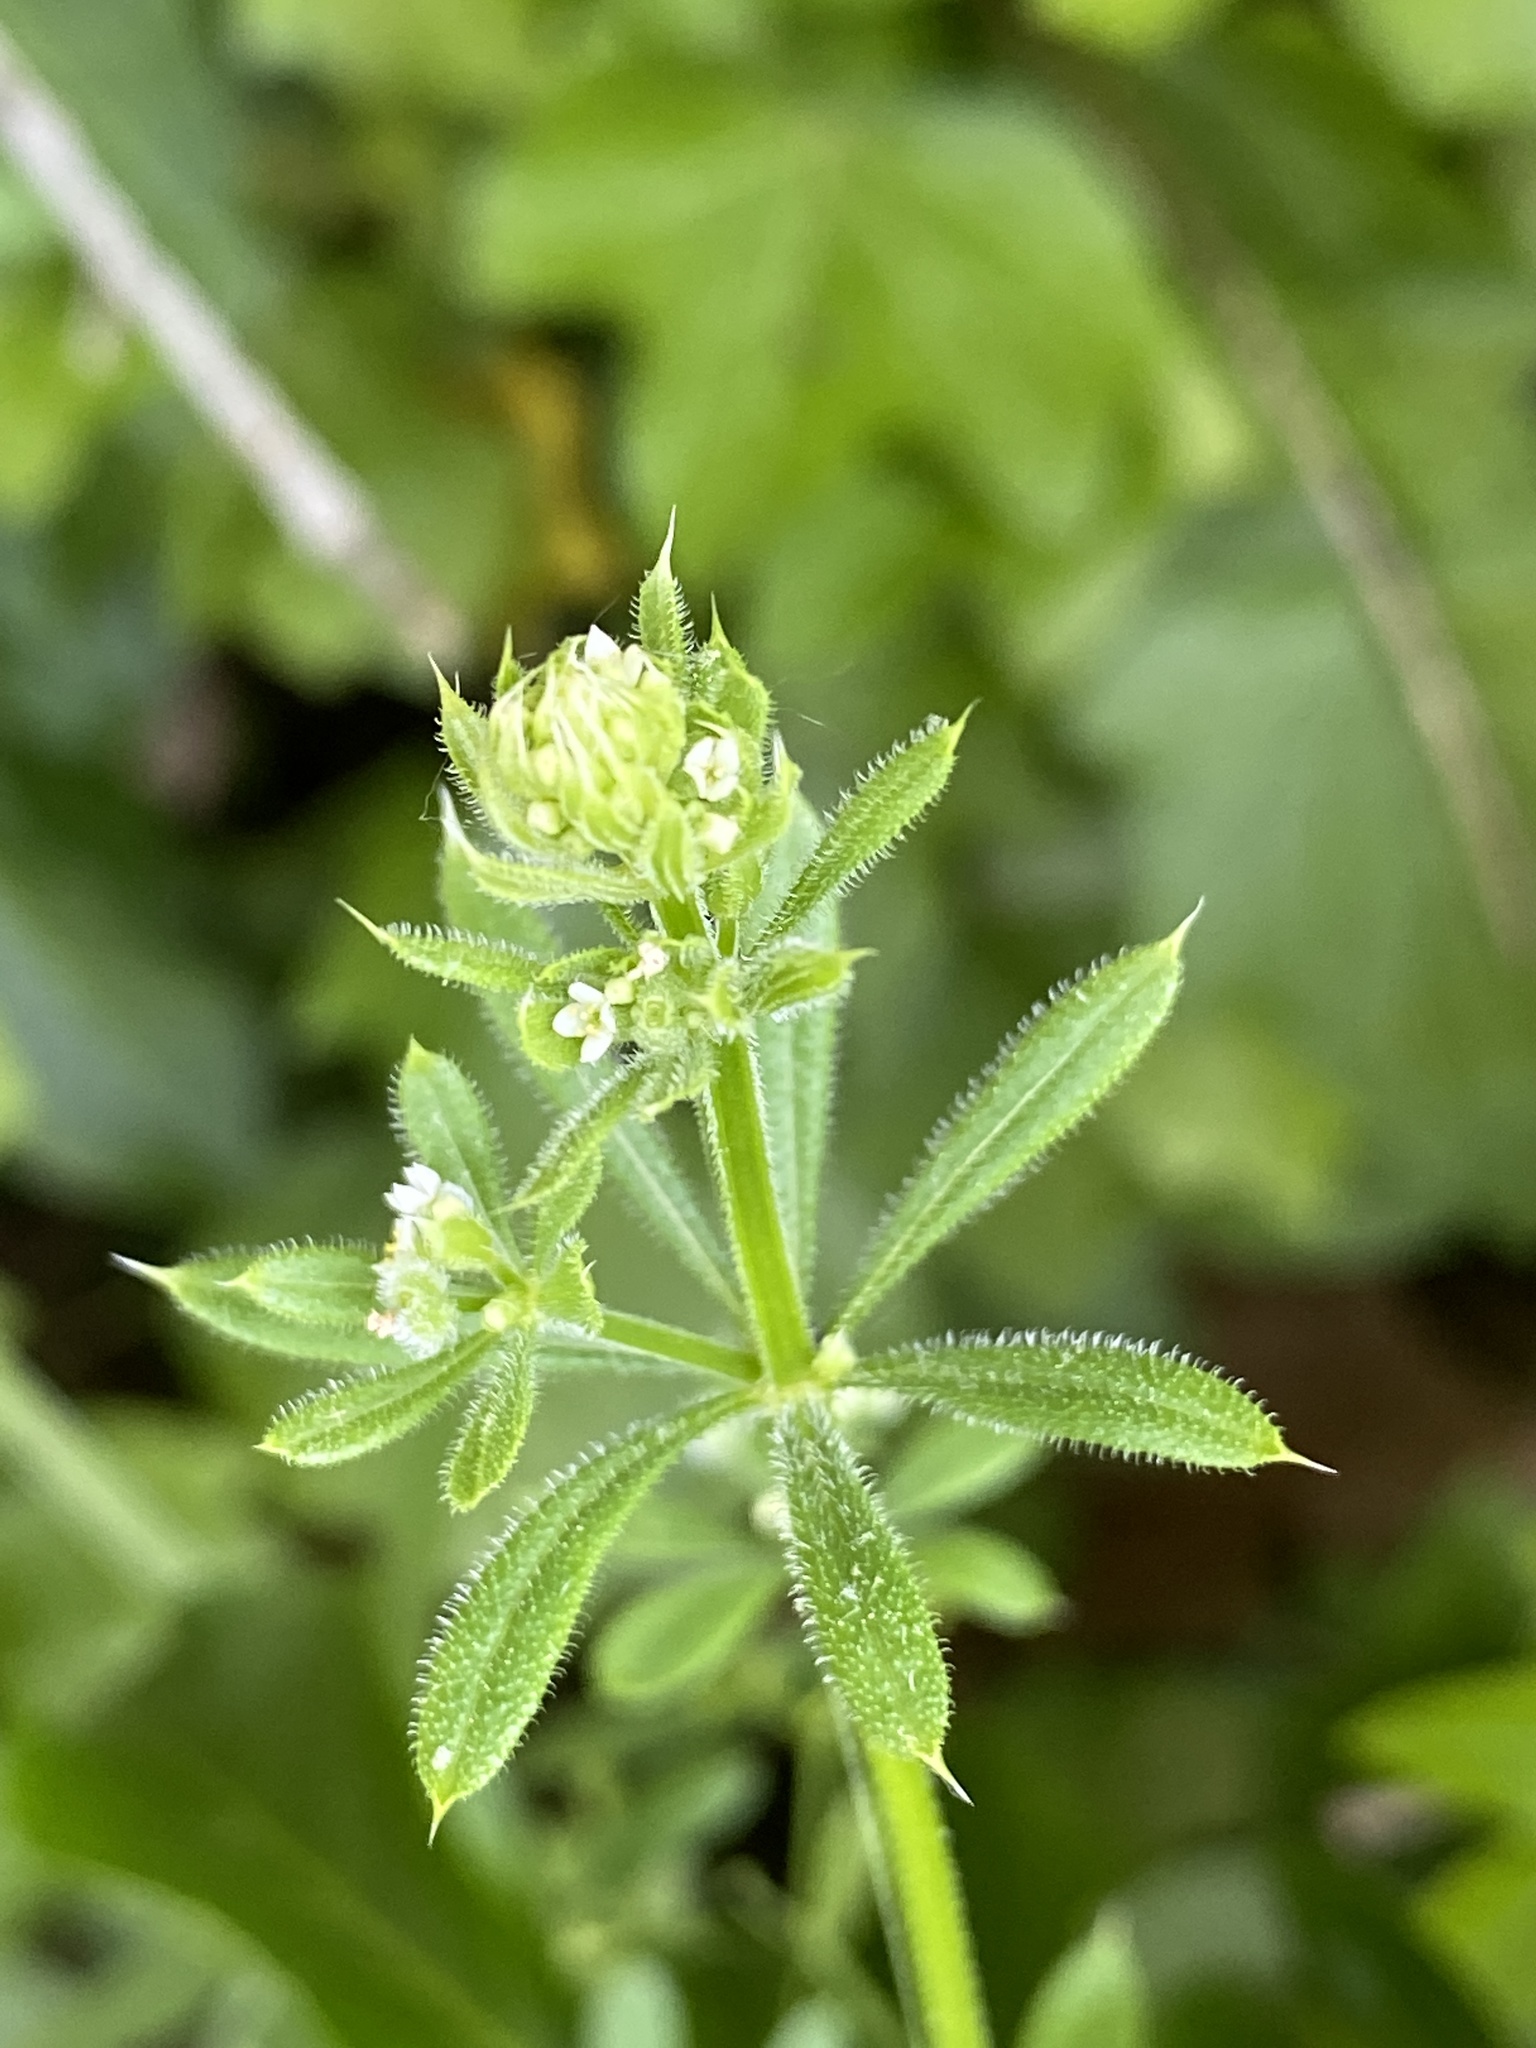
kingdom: Plantae
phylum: Tracheophyta
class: Magnoliopsida
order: Gentianales
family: Rubiaceae
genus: Galium
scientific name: Galium aparine
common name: Cleavers
